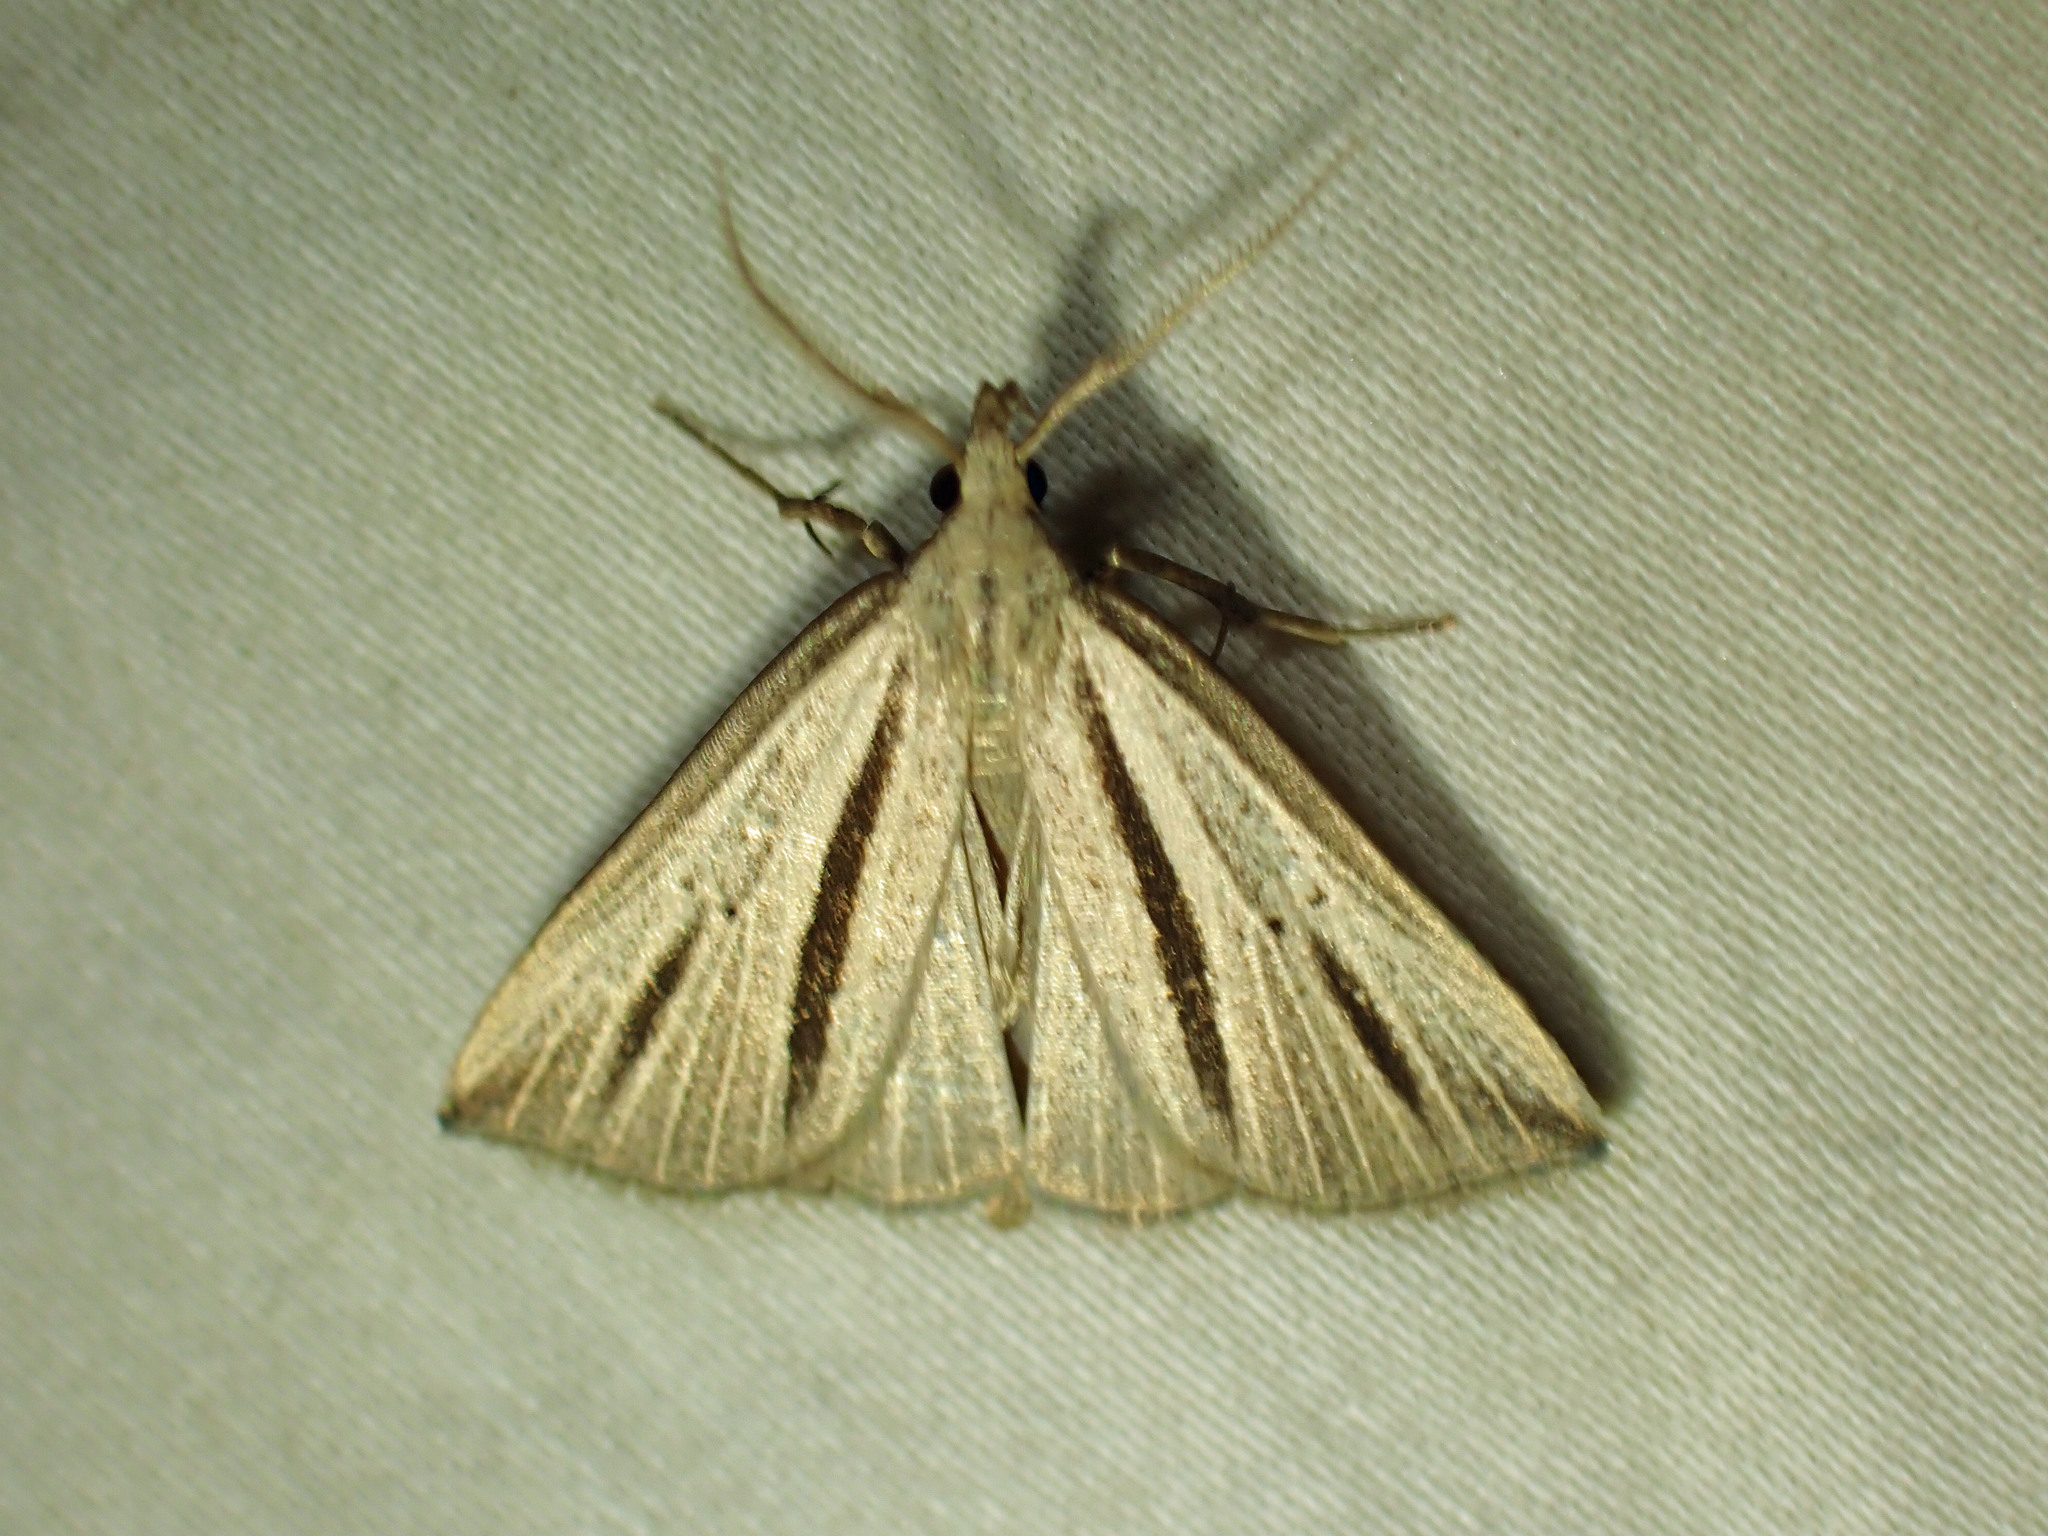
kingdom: Animalia
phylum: Arthropoda
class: Insecta
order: Lepidoptera
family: Erebidae
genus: Macrochilo
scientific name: Macrochilo bivittata
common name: Two-striped cord grass moth
